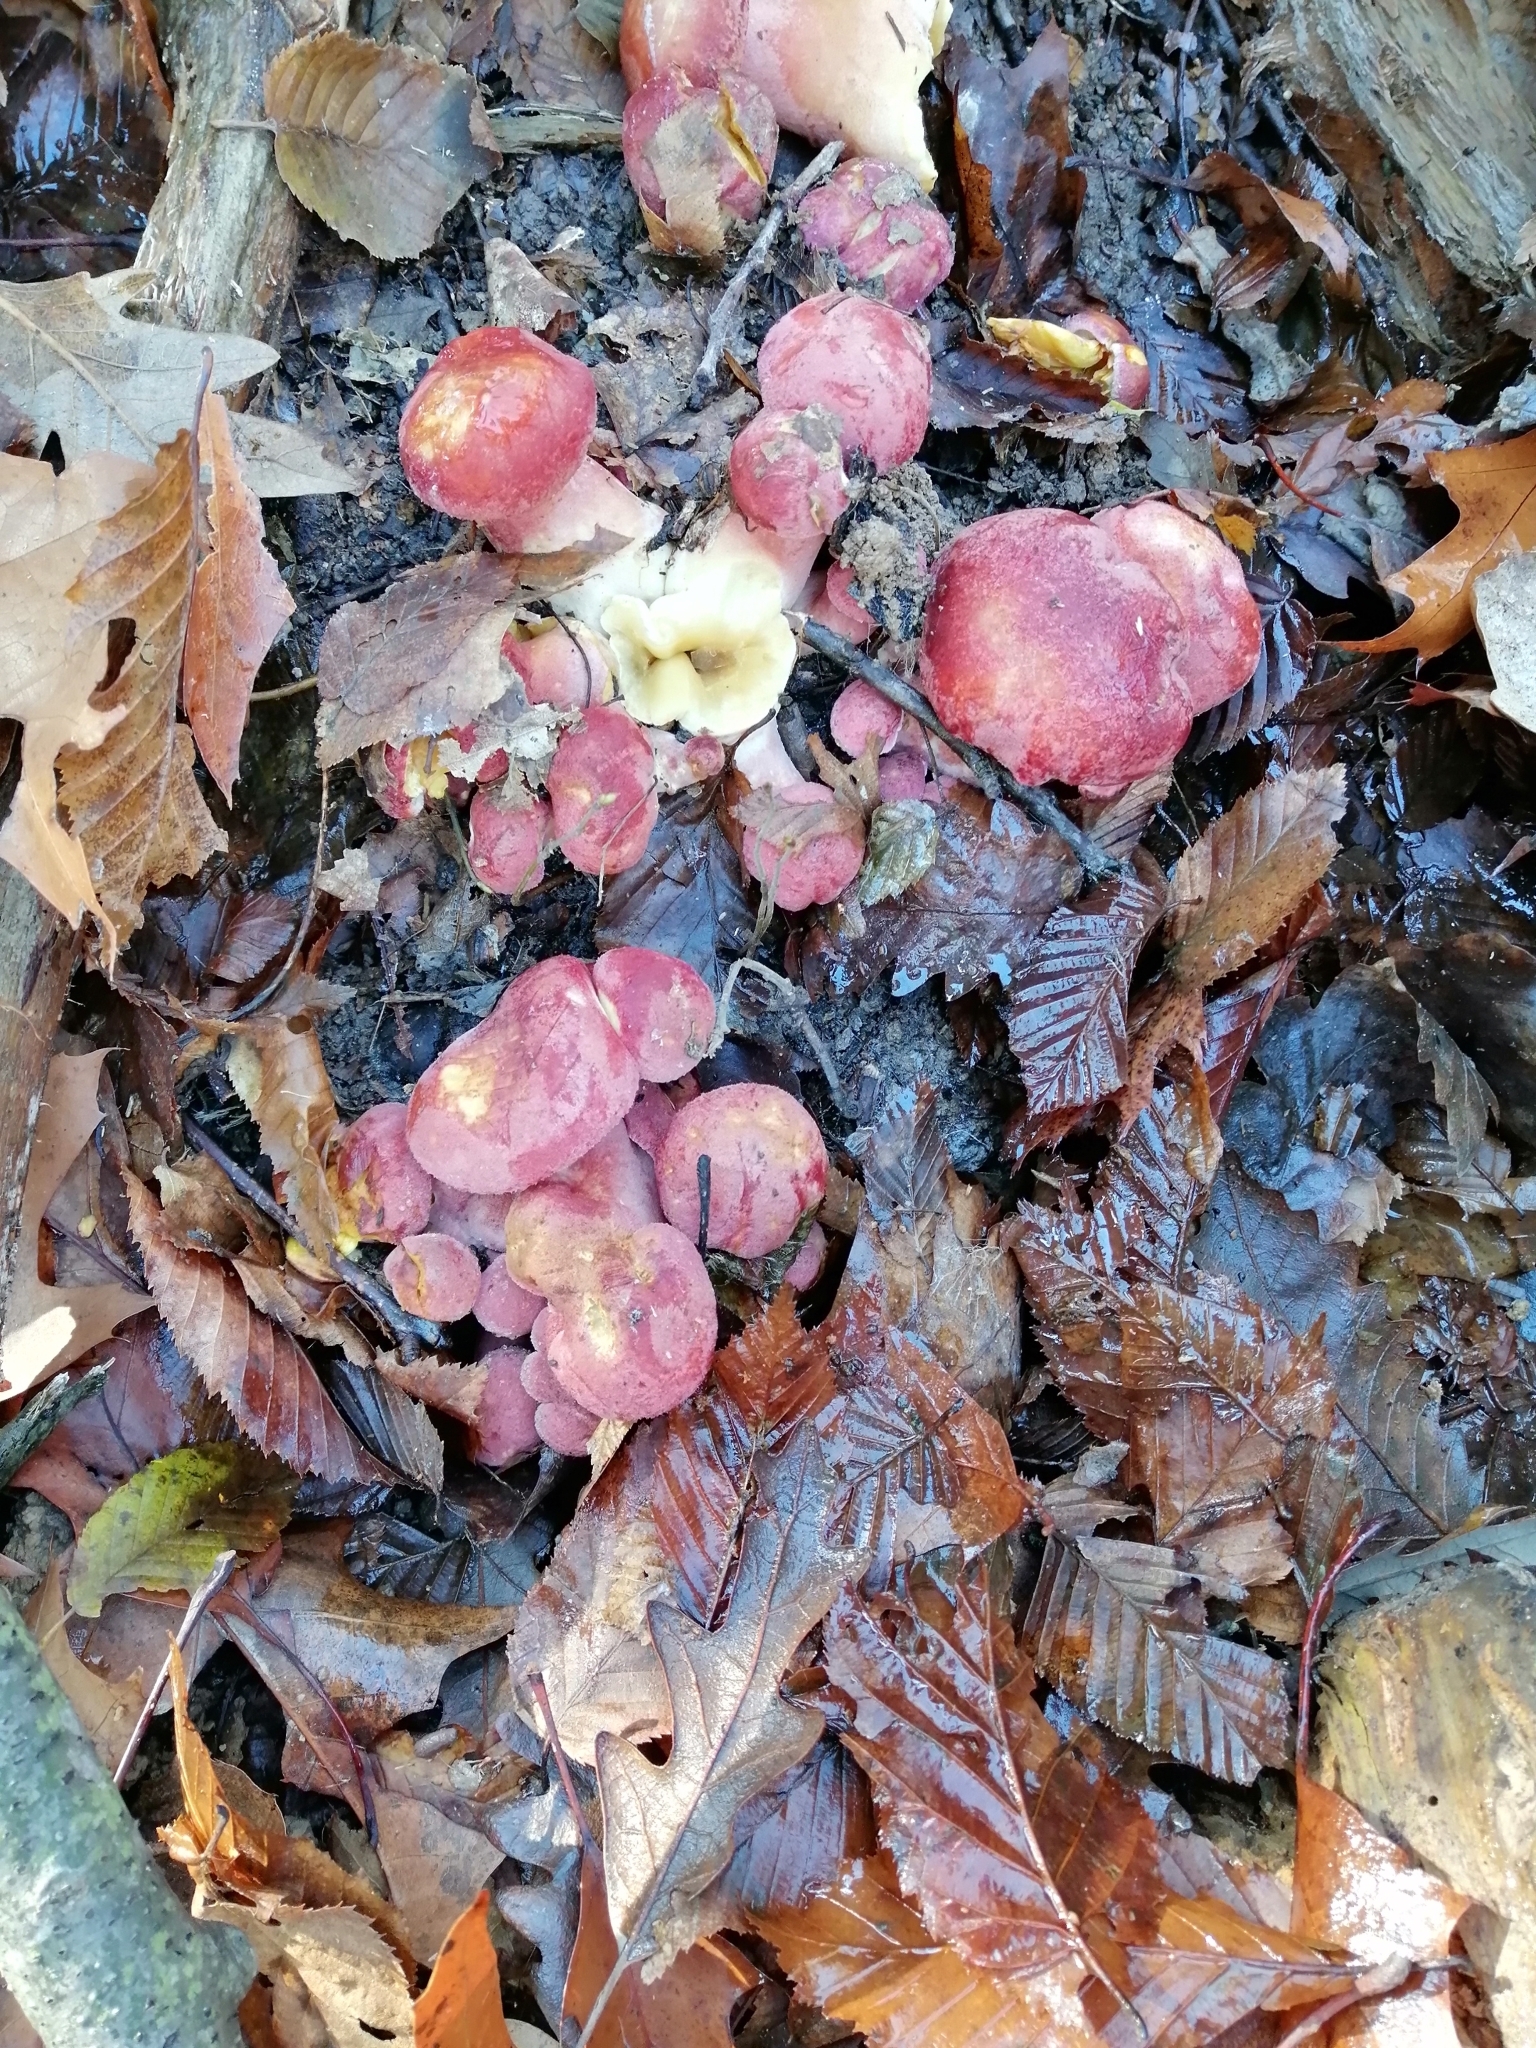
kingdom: Fungi
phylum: Basidiomycota
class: Agaricomycetes
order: Agaricales
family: Tricholomataceae
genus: Tricholomopsis
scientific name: Tricholomopsis rutilans
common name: Plums and custard
